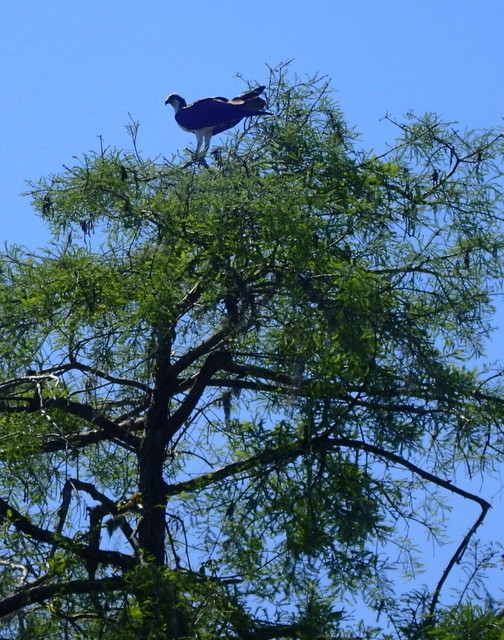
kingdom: Animalia
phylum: Chordata
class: Aves
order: Accipitriformes
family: Pandionidae
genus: Pandion
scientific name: Pandion haliaetus
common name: Osprey
